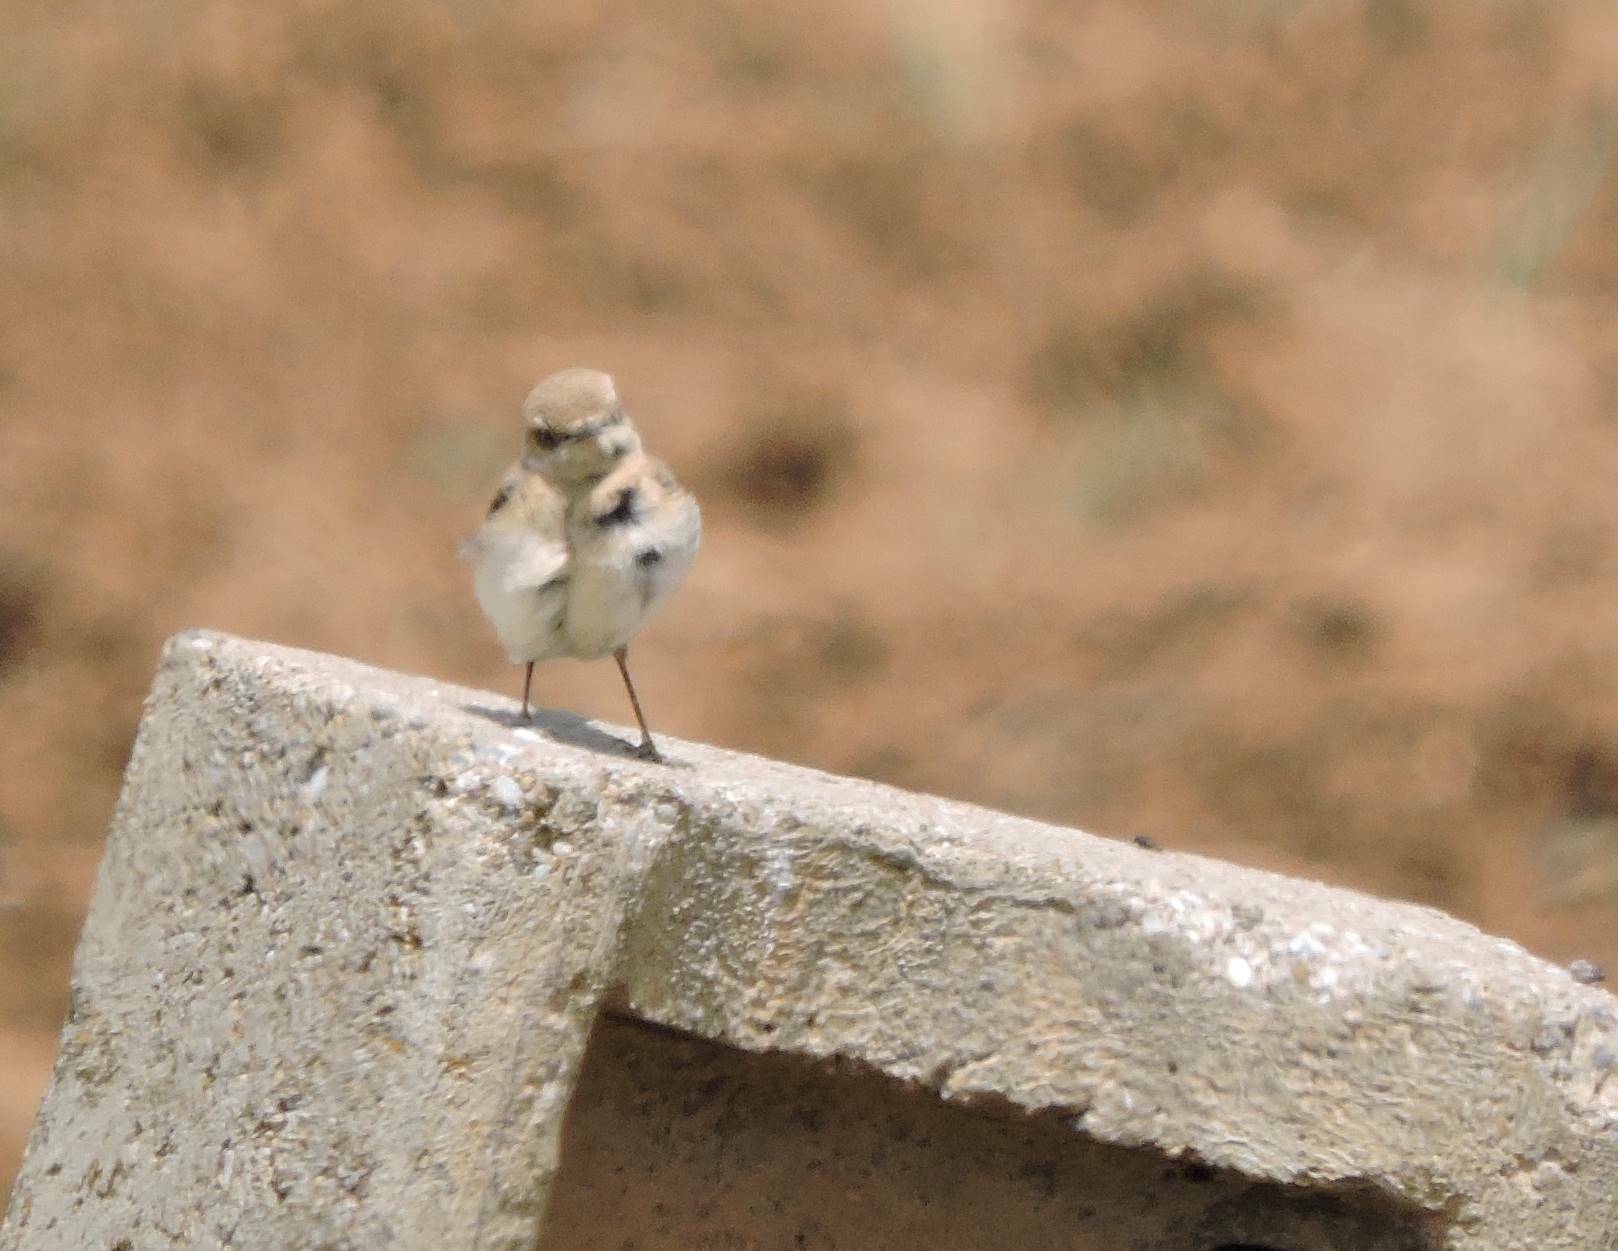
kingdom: Animalia
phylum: Chordata
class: Aves
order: Passeriformes
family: Muscicapidae
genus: Oenanthe
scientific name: Oenanthe oenanthe
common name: Northern wheatear
